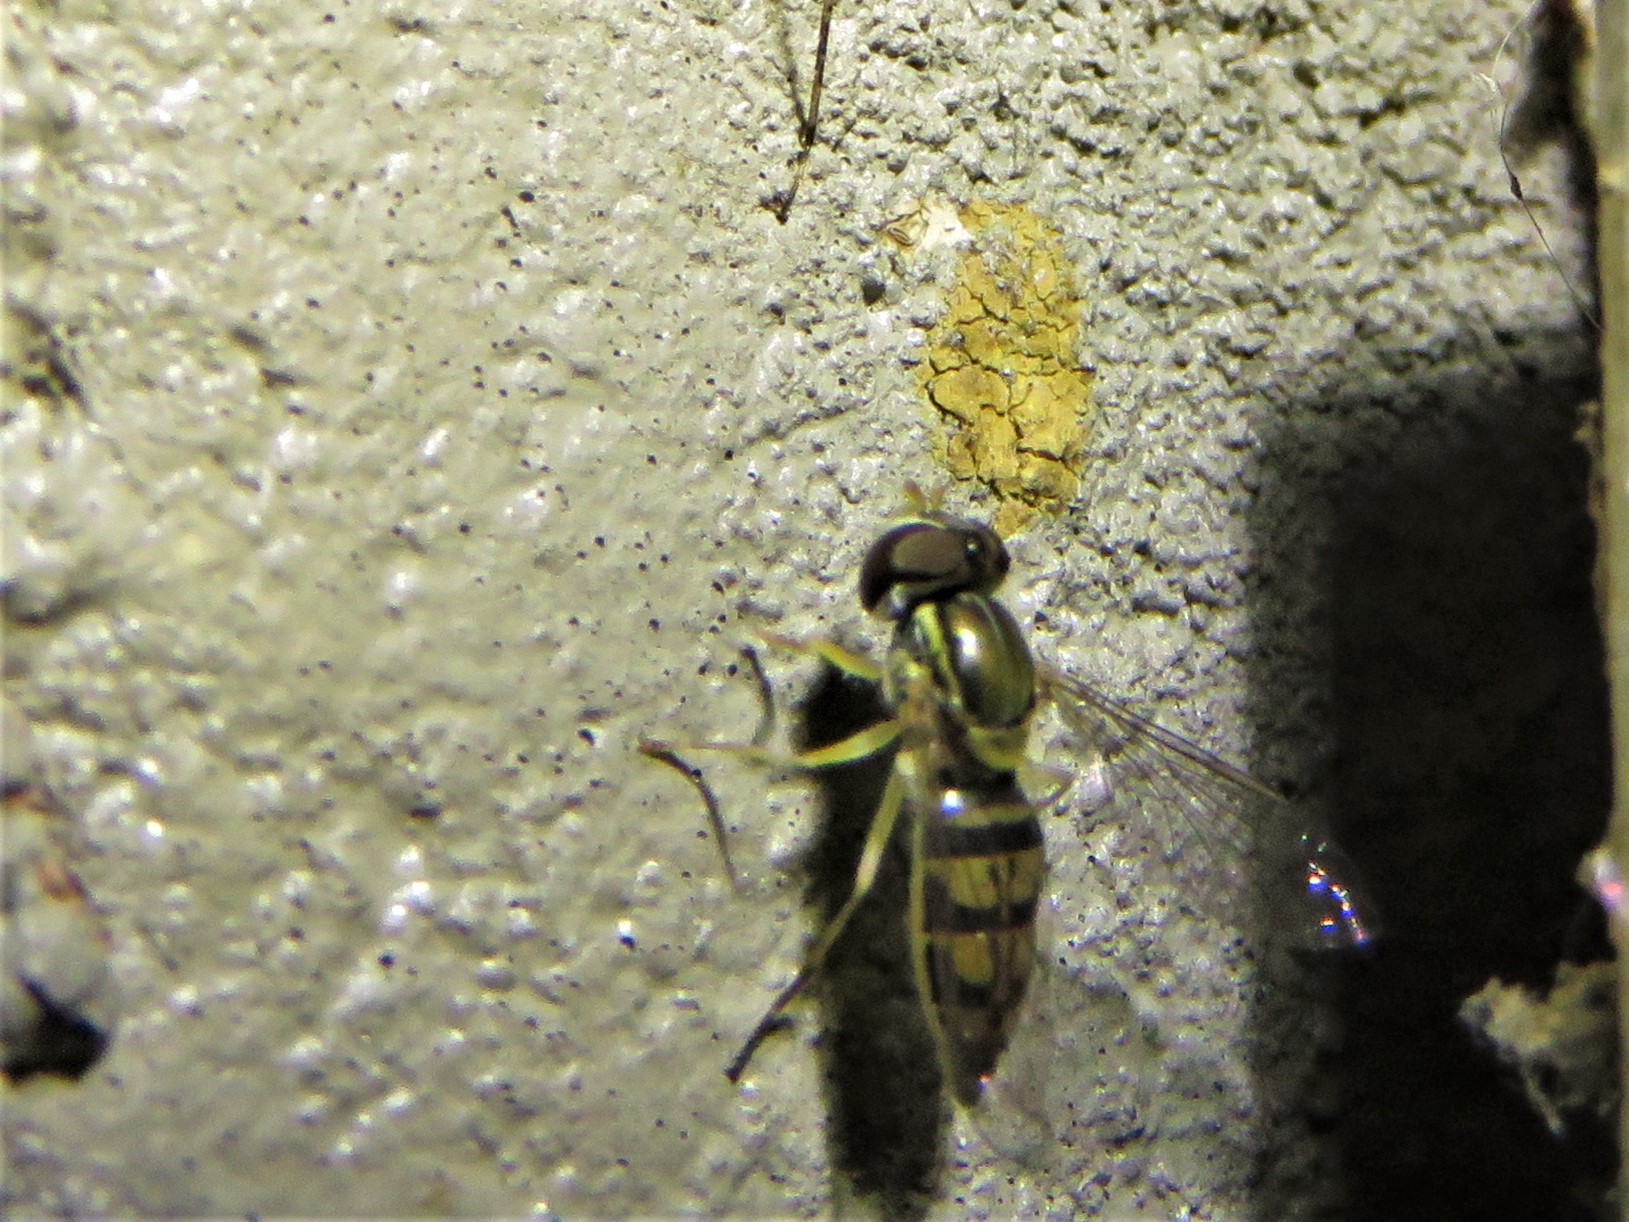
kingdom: Animalia
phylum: Arthropoda
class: Insecta
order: Diptera
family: Syrphidae
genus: Toxomerus
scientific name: Toxomerus marginatus
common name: Syrphid fly
